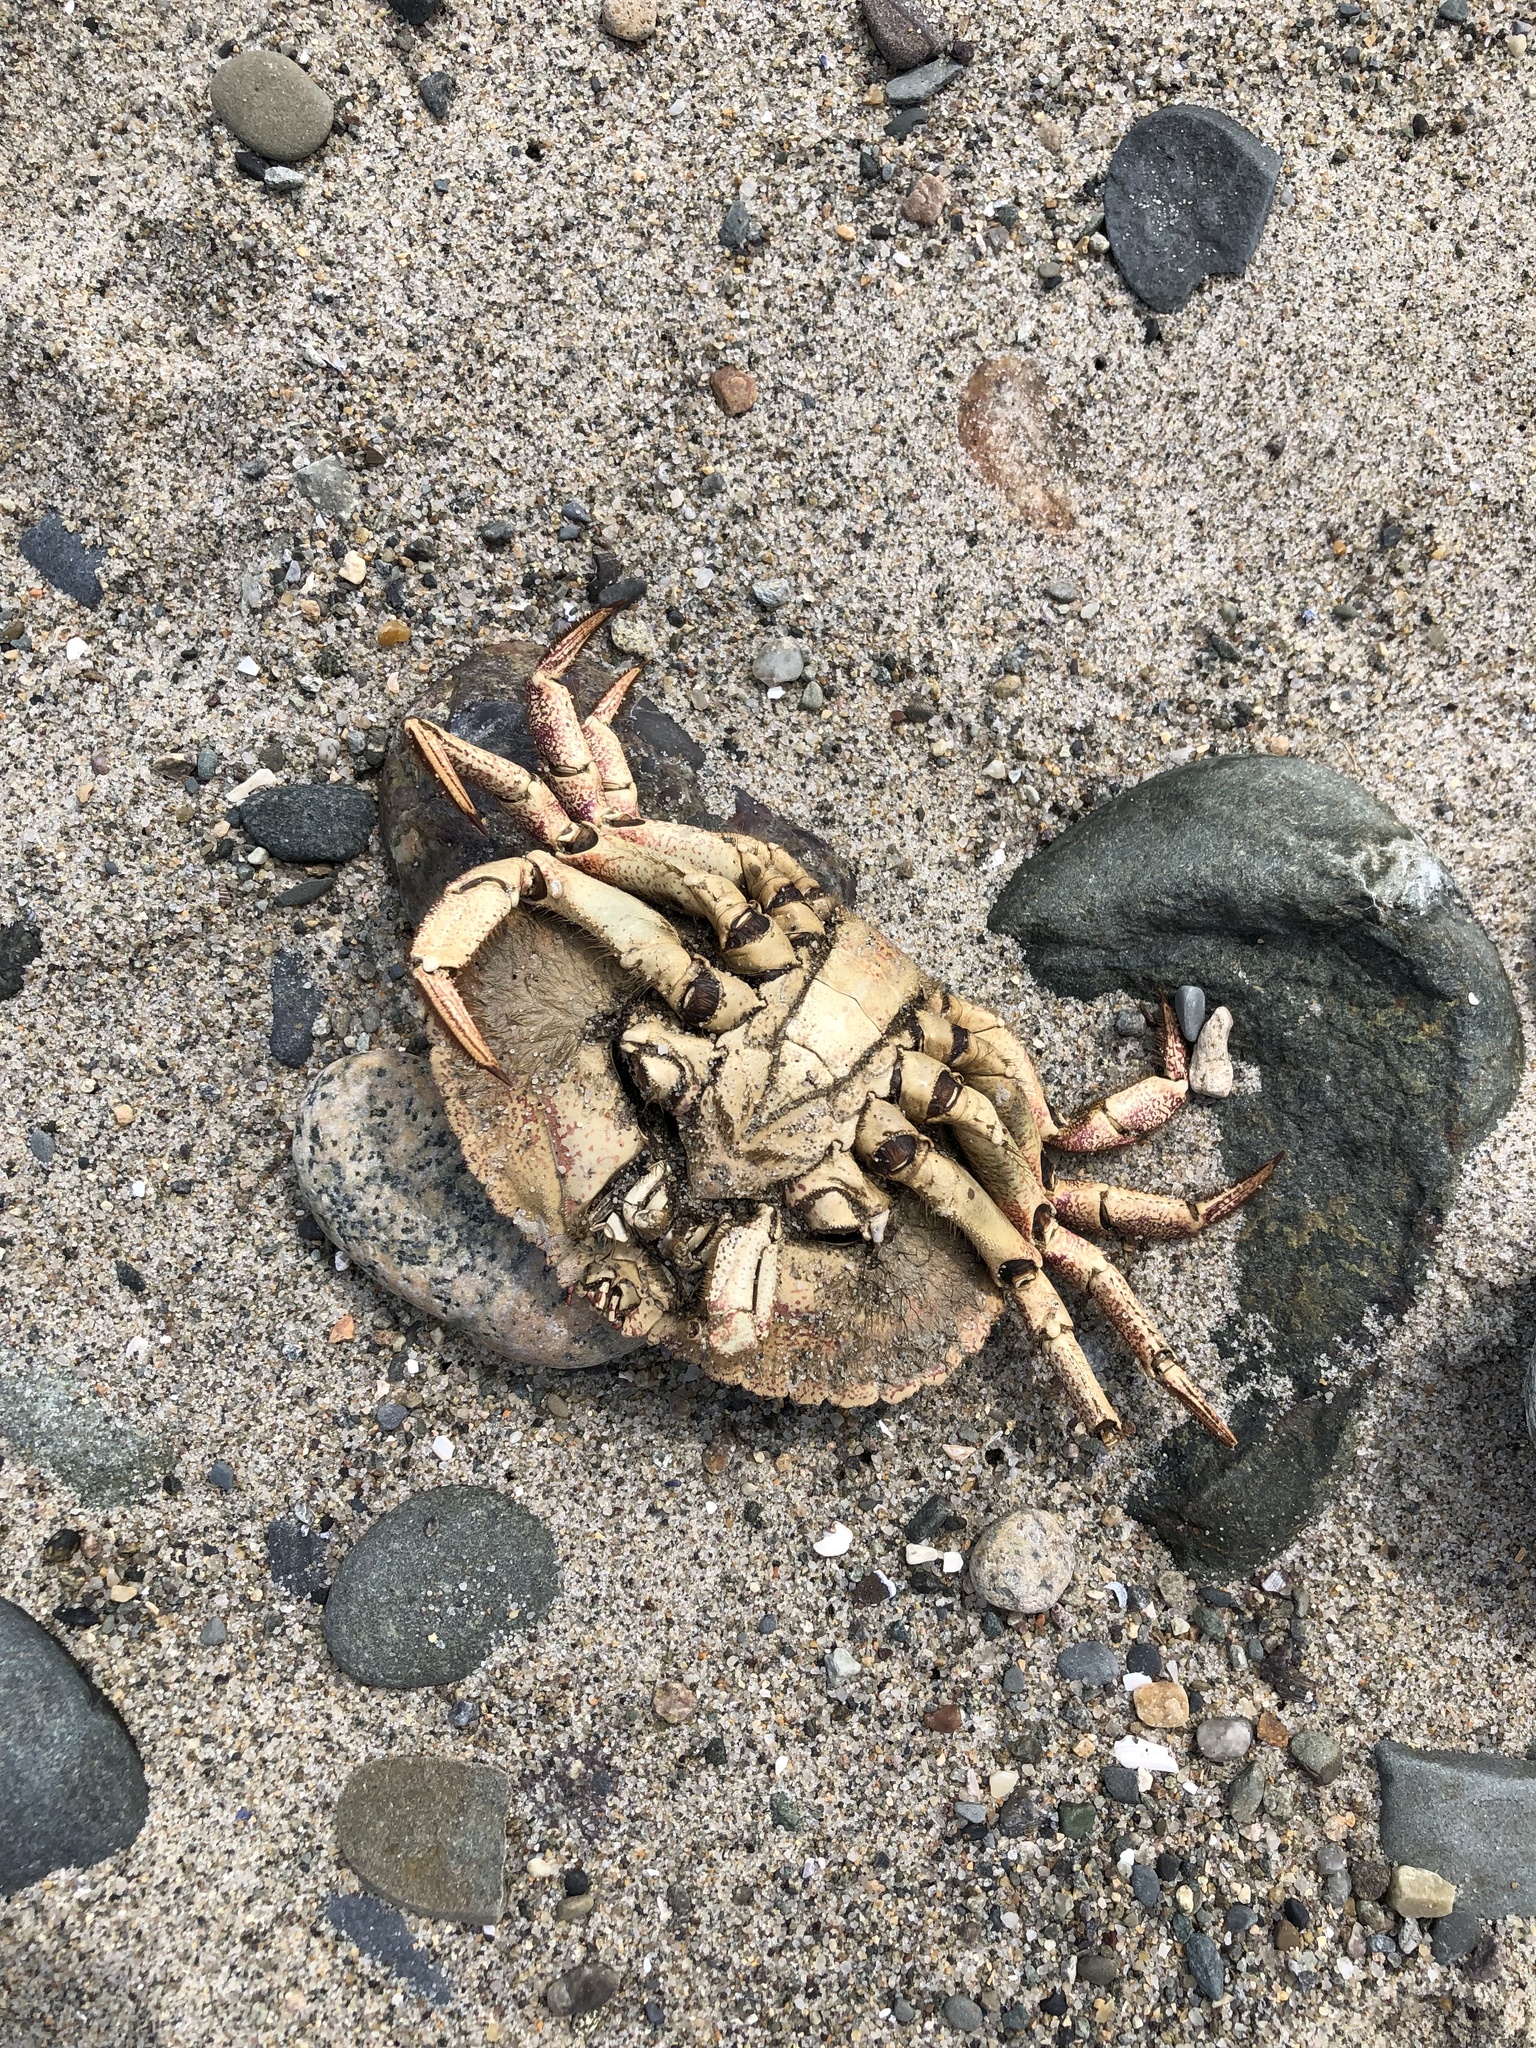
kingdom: Animalia
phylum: Arthropoda
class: Malacostraca
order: Decapoda
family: Cancridae
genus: Cancer
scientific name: Cancer borealis
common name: Jonah crab
